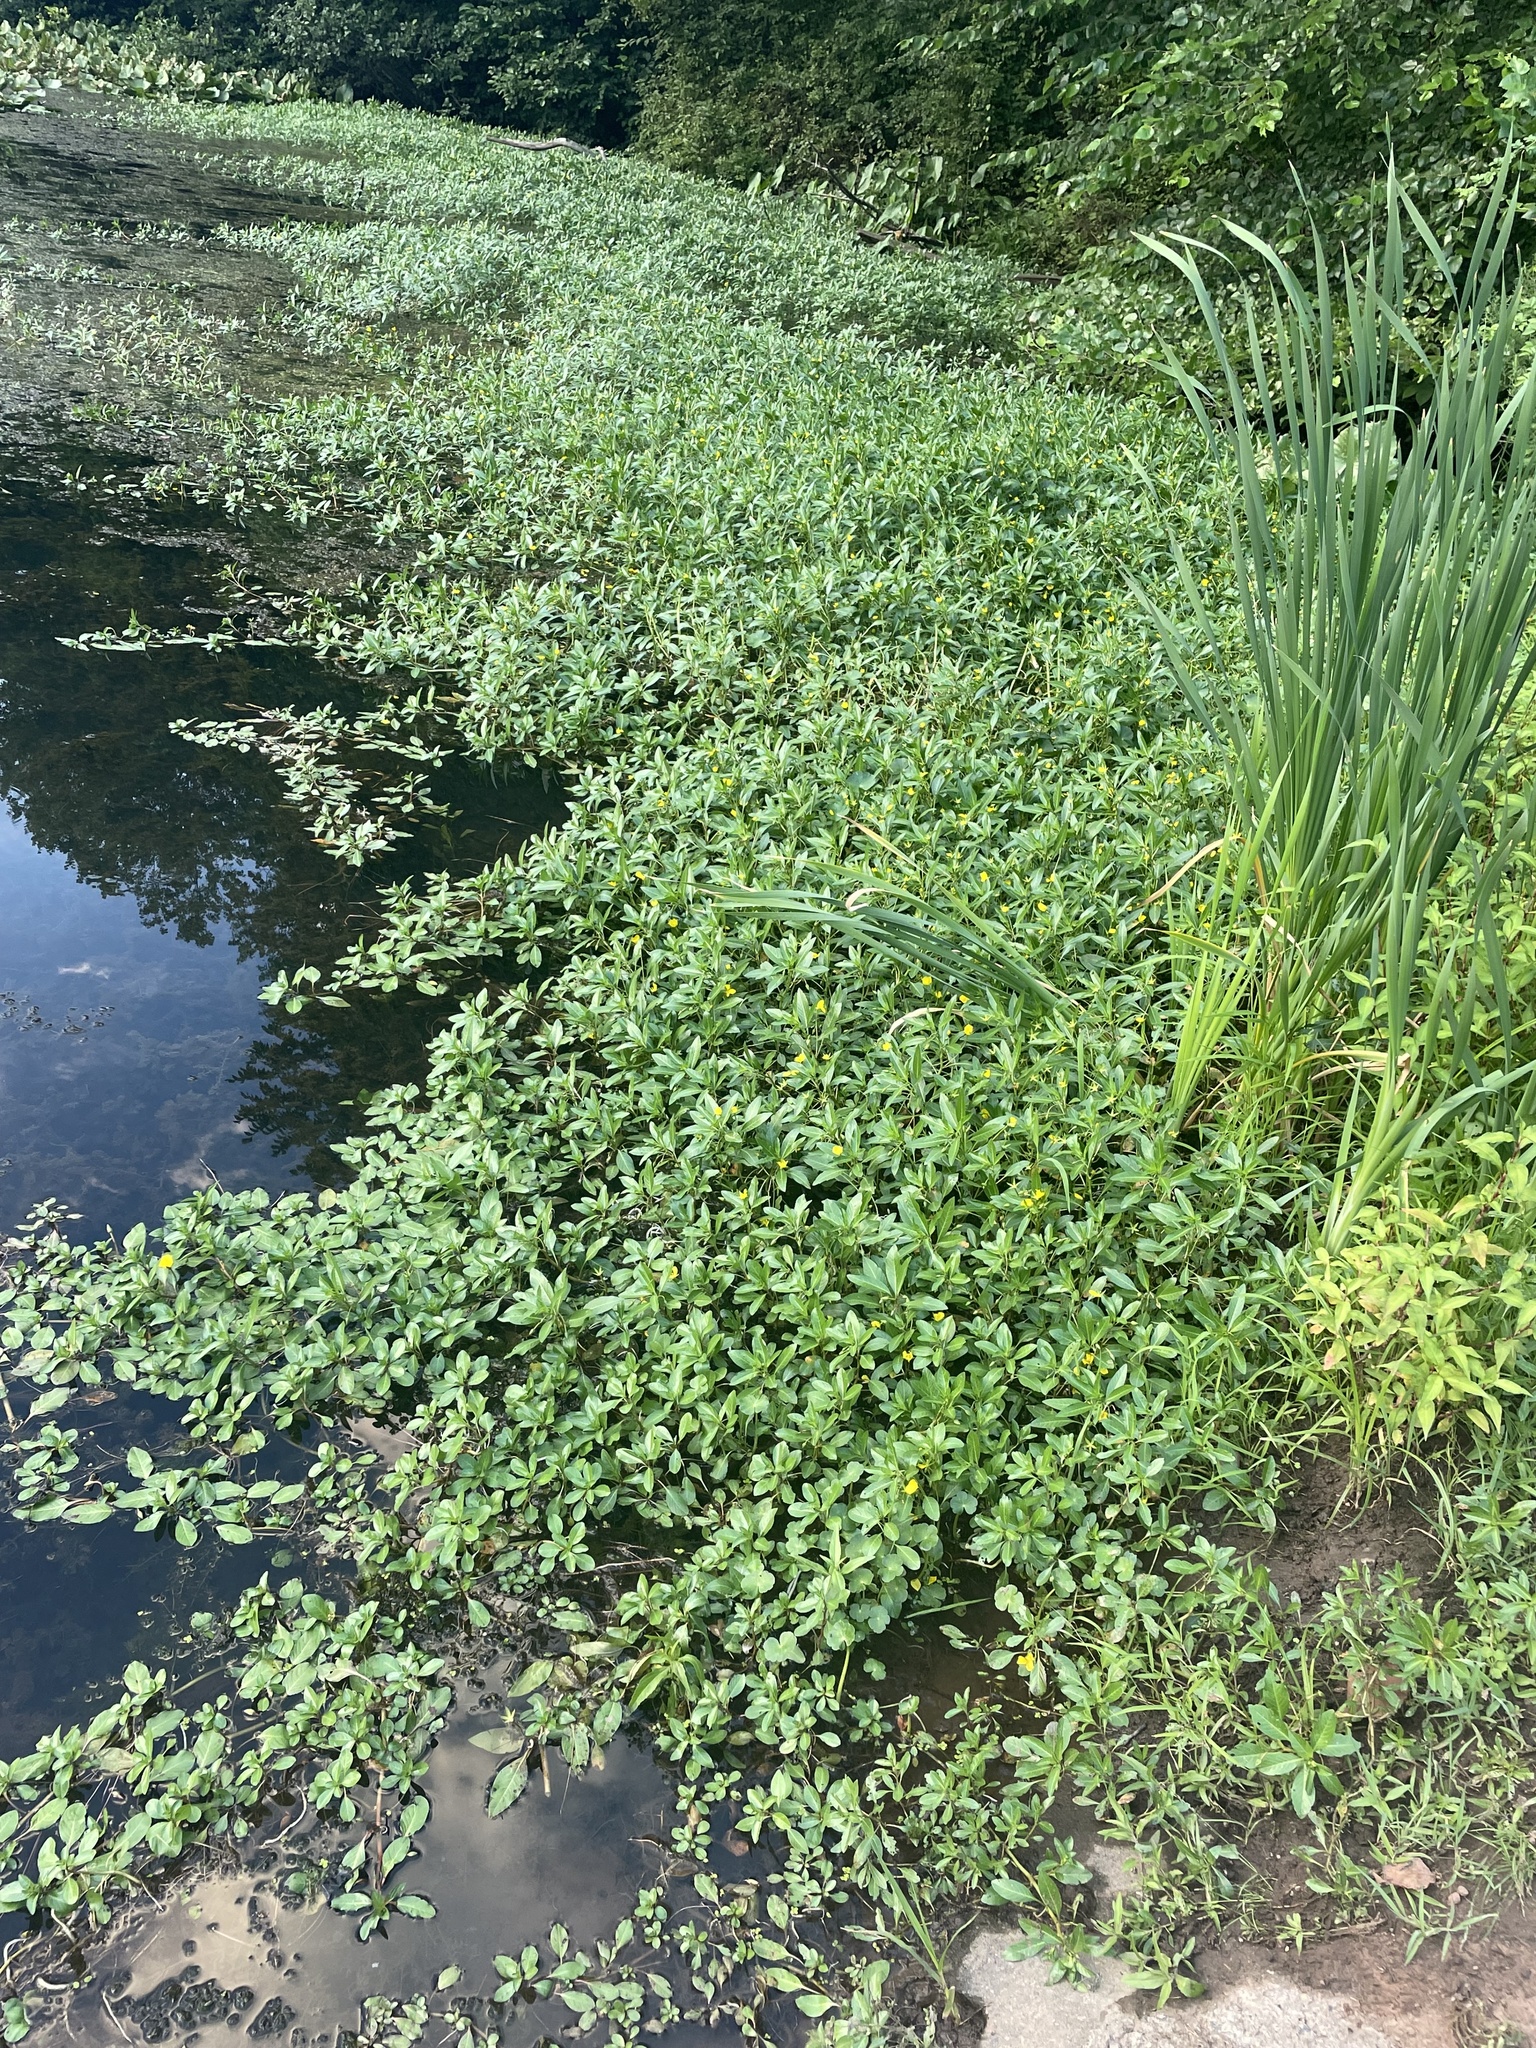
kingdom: Plantae
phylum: Tracheophyta
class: Magnoliopsida
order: Myrtales
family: Onagraceae
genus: Ludwigia
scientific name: Ludwigia peploides
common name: Floating primrose-willow
